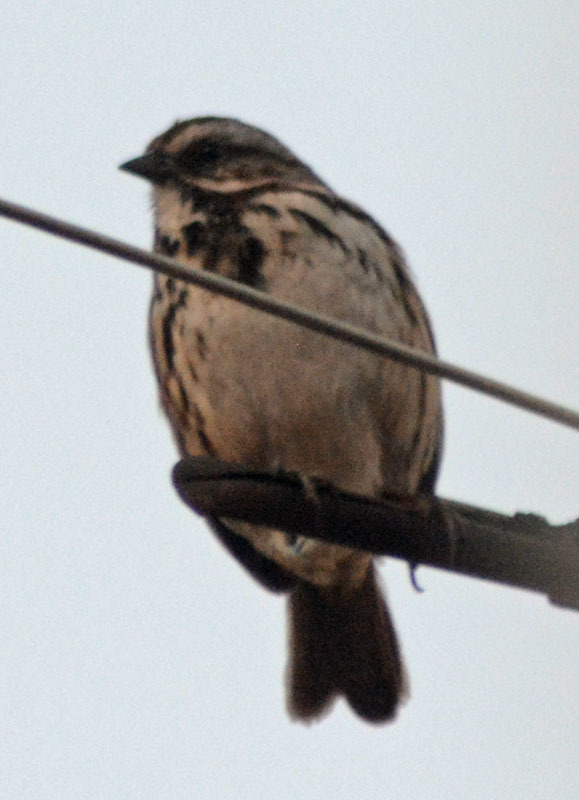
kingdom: Animalia
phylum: Chordata
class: Aves
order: Passeriformes
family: Passerellidae
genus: Melospiza
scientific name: Melospiza melodia
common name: Song sparrow
